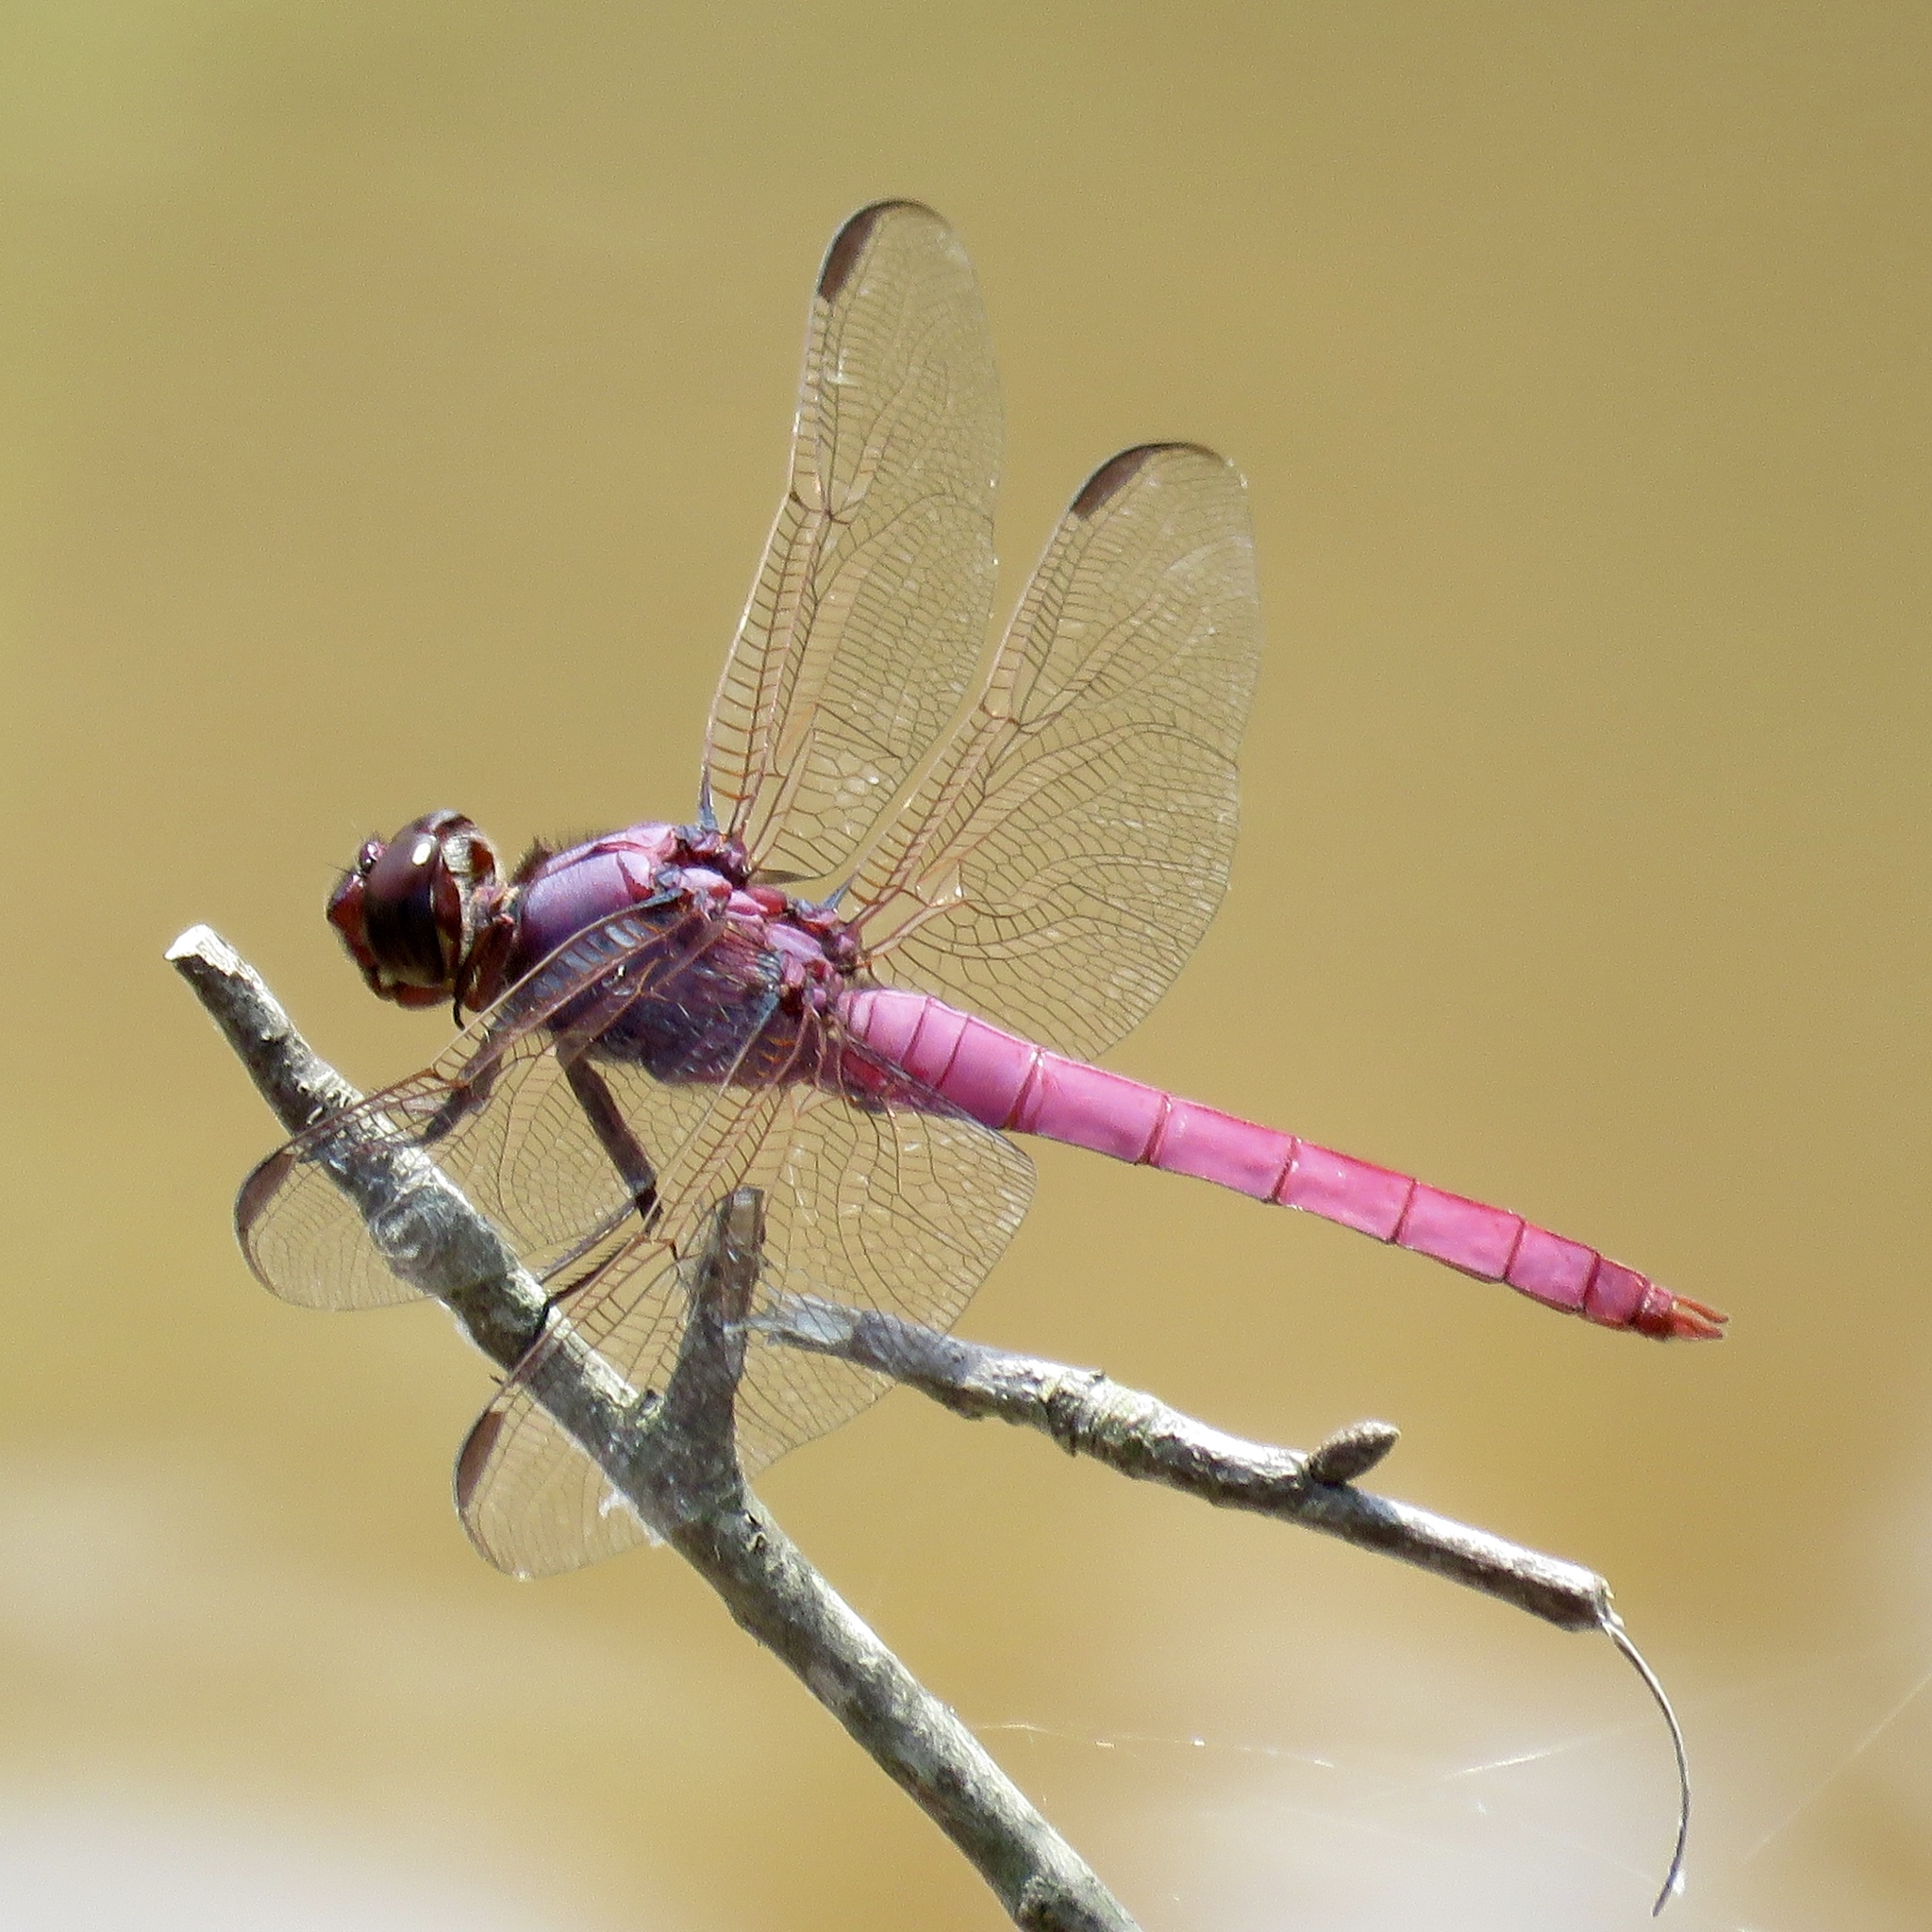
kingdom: Animalia
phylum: Arthropoda
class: Insecta
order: Odonata
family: Libellulidae
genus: Orthemis
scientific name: Orthemis ferruginea
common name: Roseate skimmer
